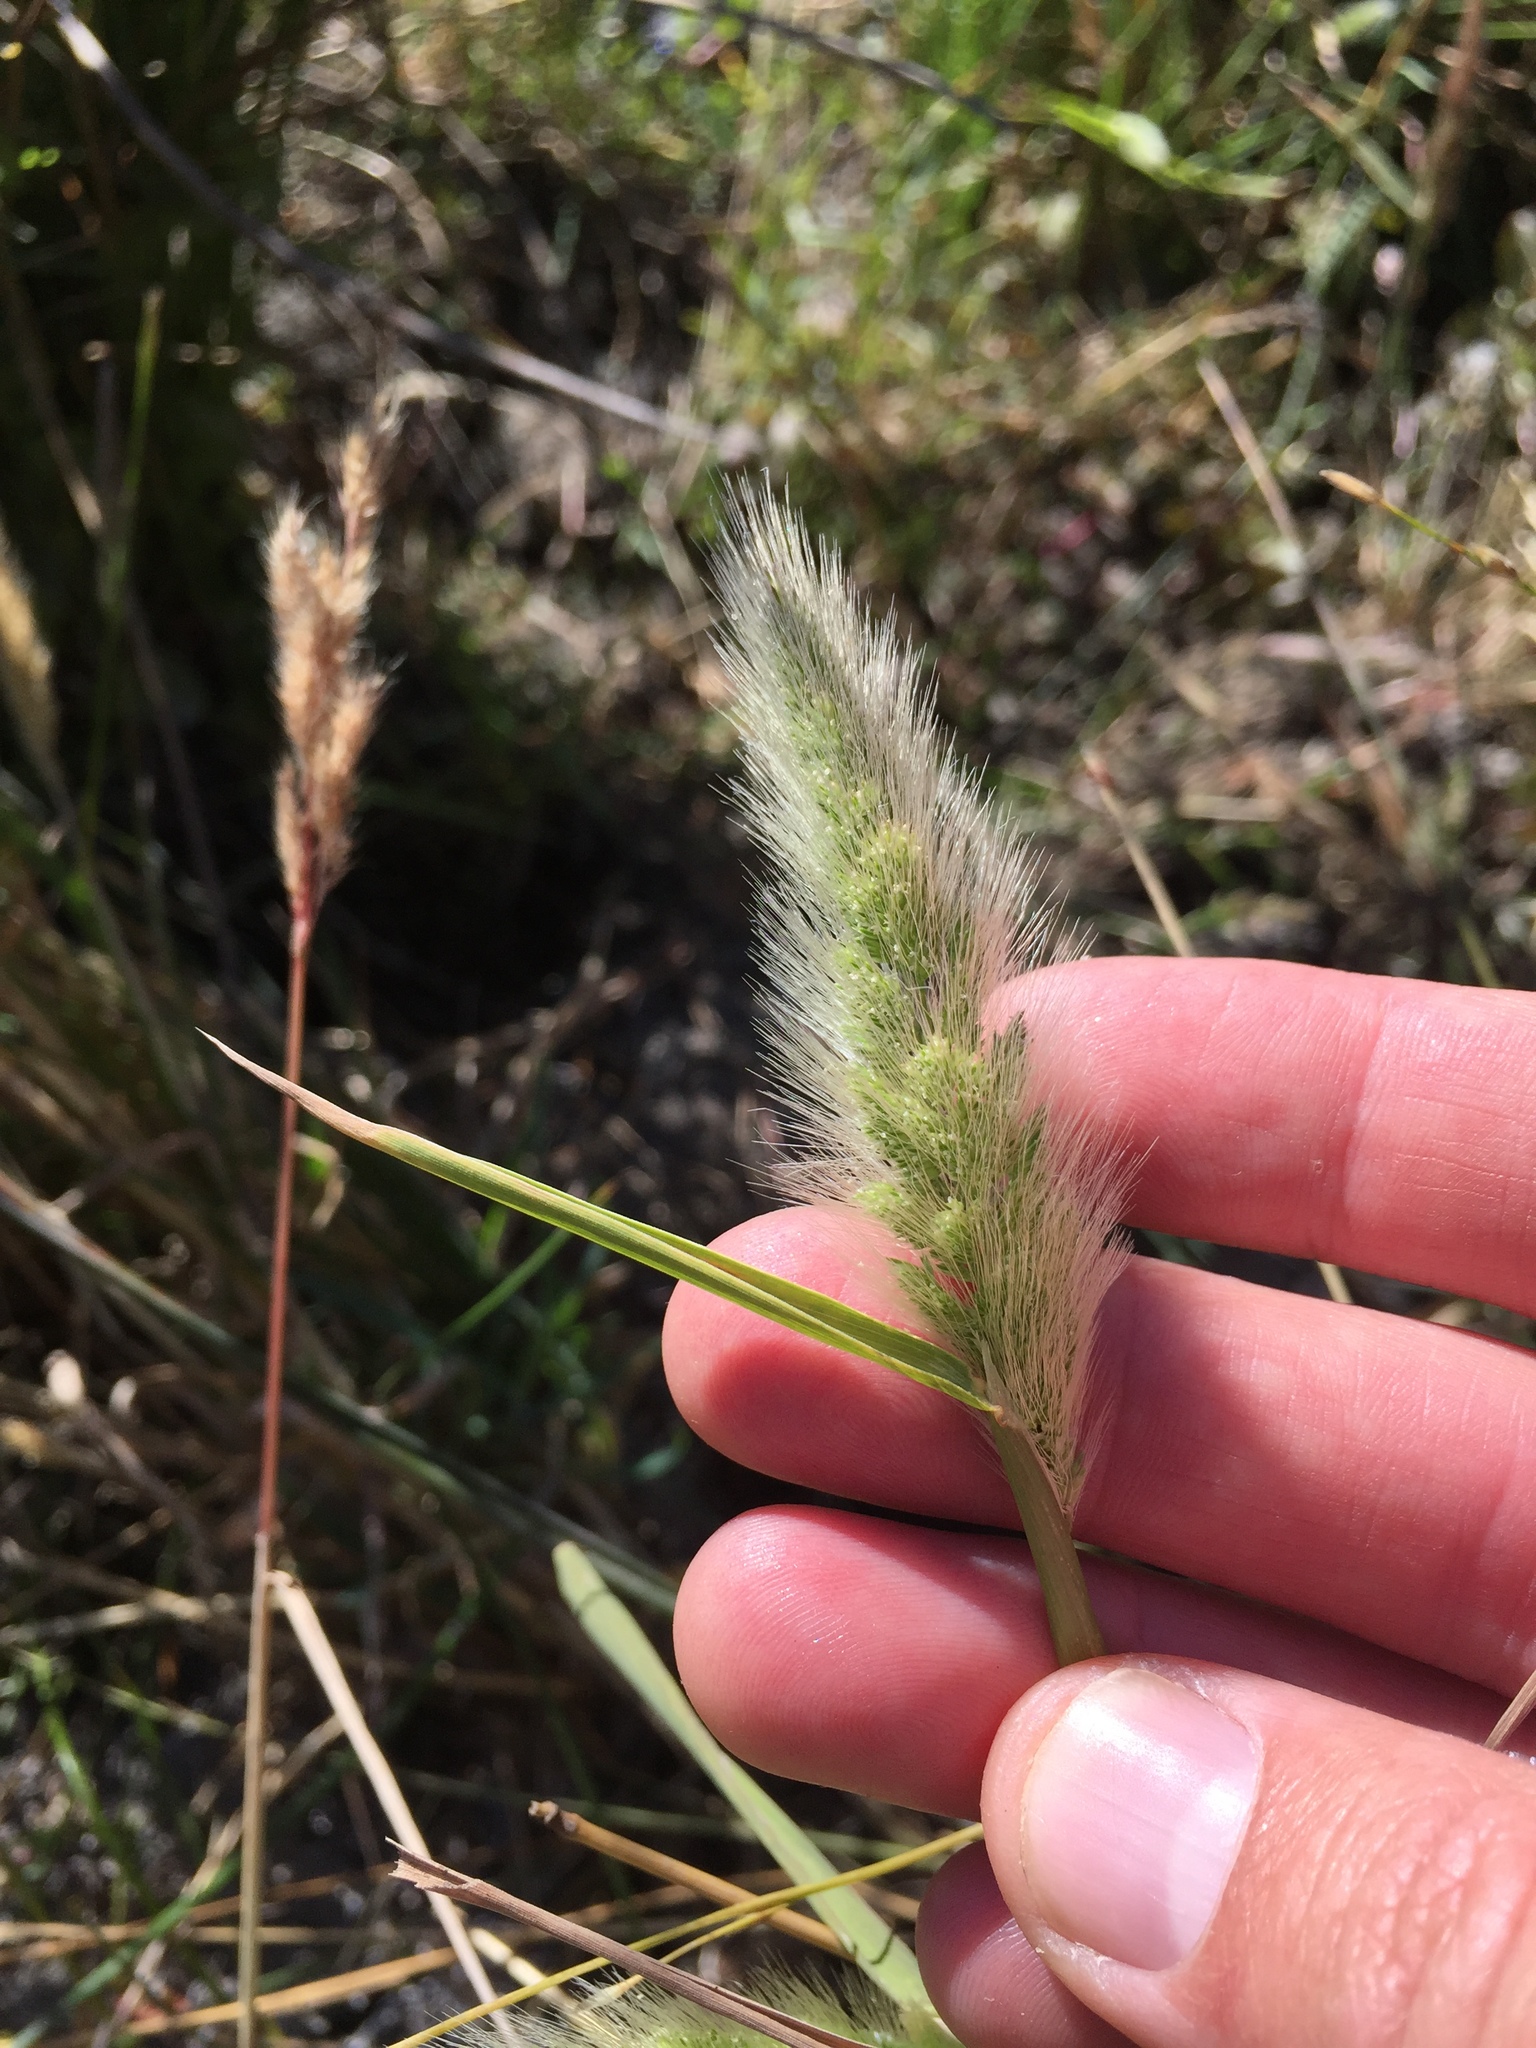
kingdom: Plantae
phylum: Tracheophyta
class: Liliopsida
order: Poales
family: Poaceae
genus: Polypogon
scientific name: Polypogon monspeliensis
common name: Annual rabbitsfoot grass
